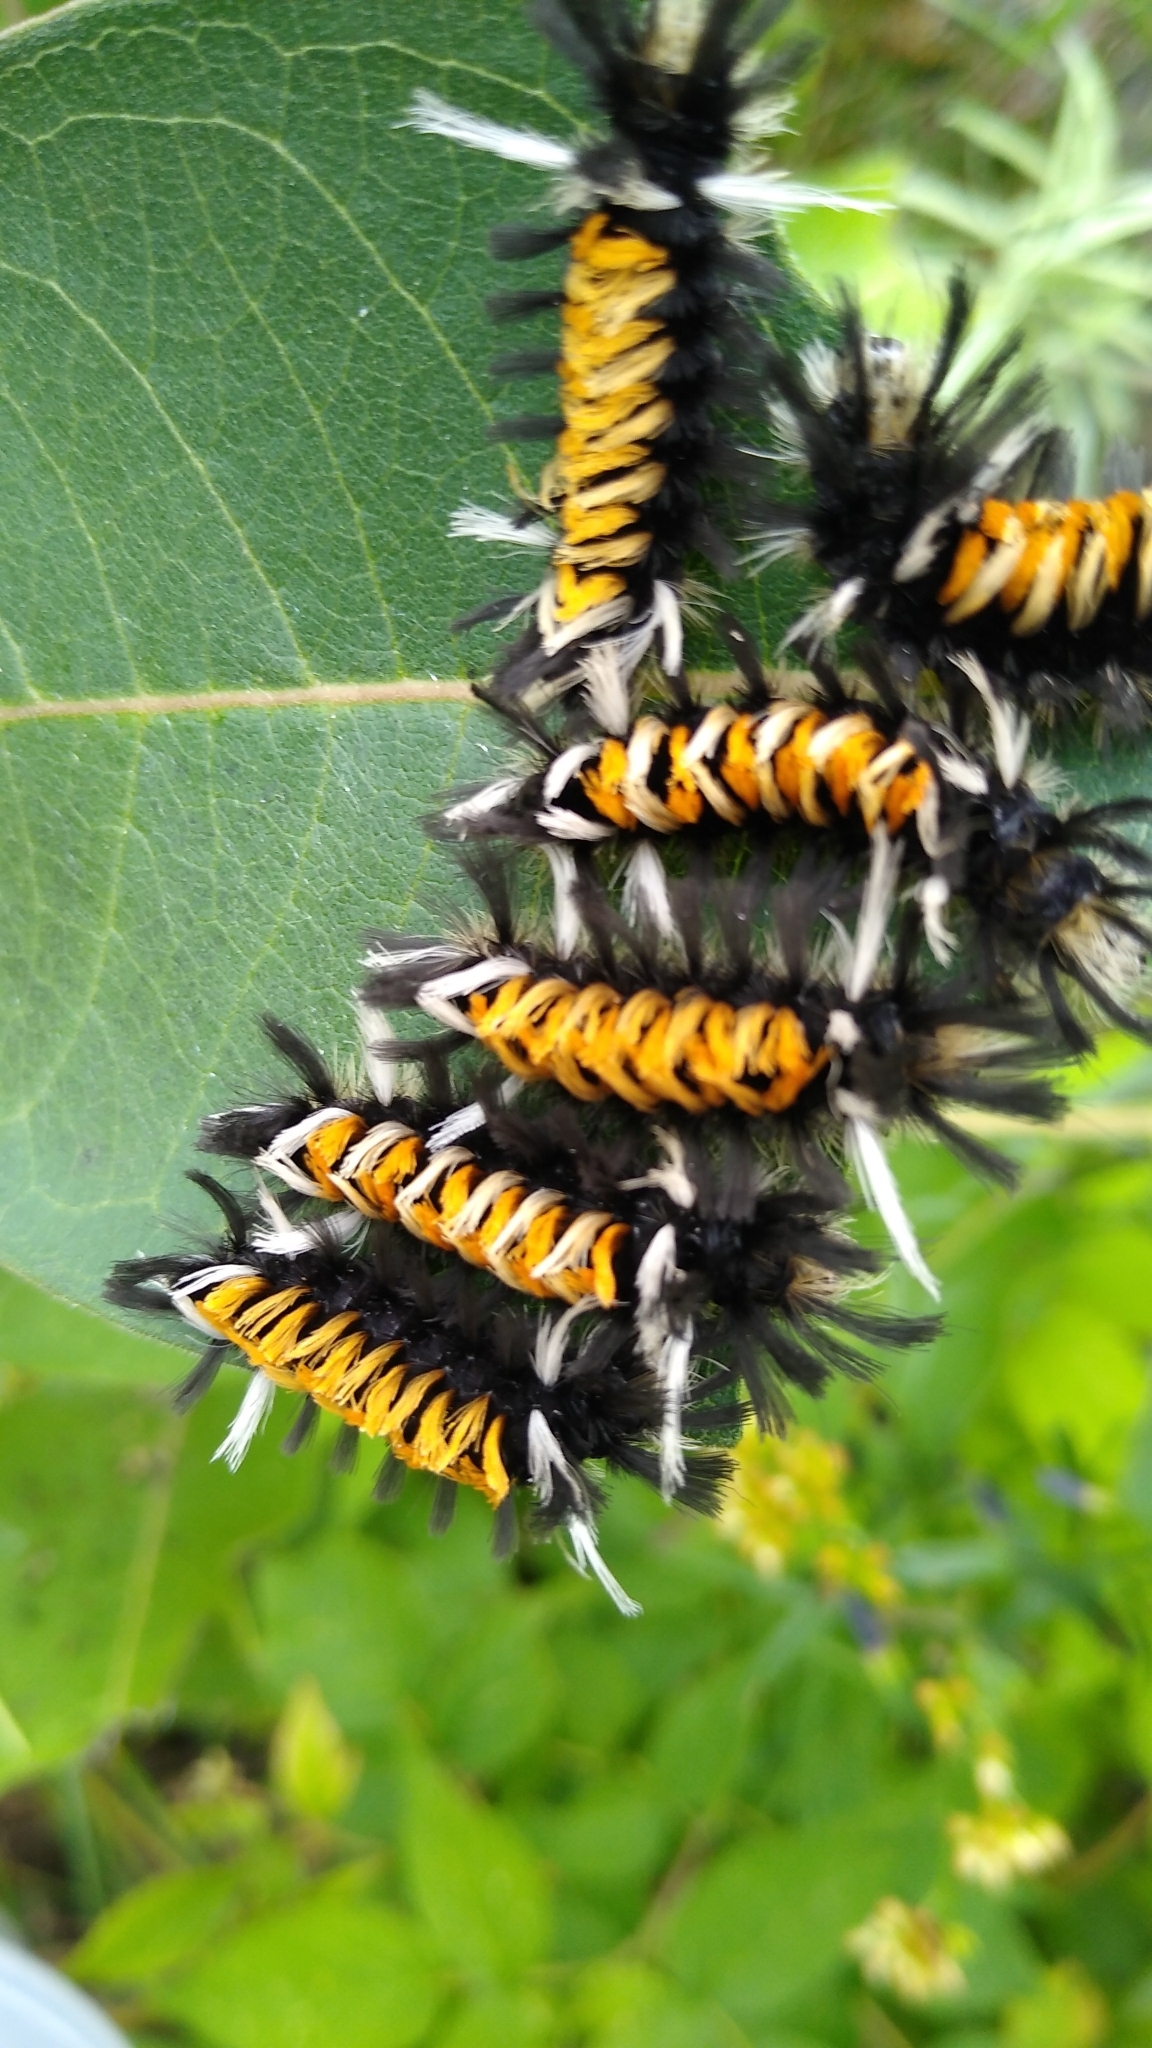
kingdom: Animalia
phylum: Arthropoda
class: Insecta
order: Lepidoptera
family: Erebidae
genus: Euchaetes
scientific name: Euchaetes egle
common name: Milkweed tussock moth
